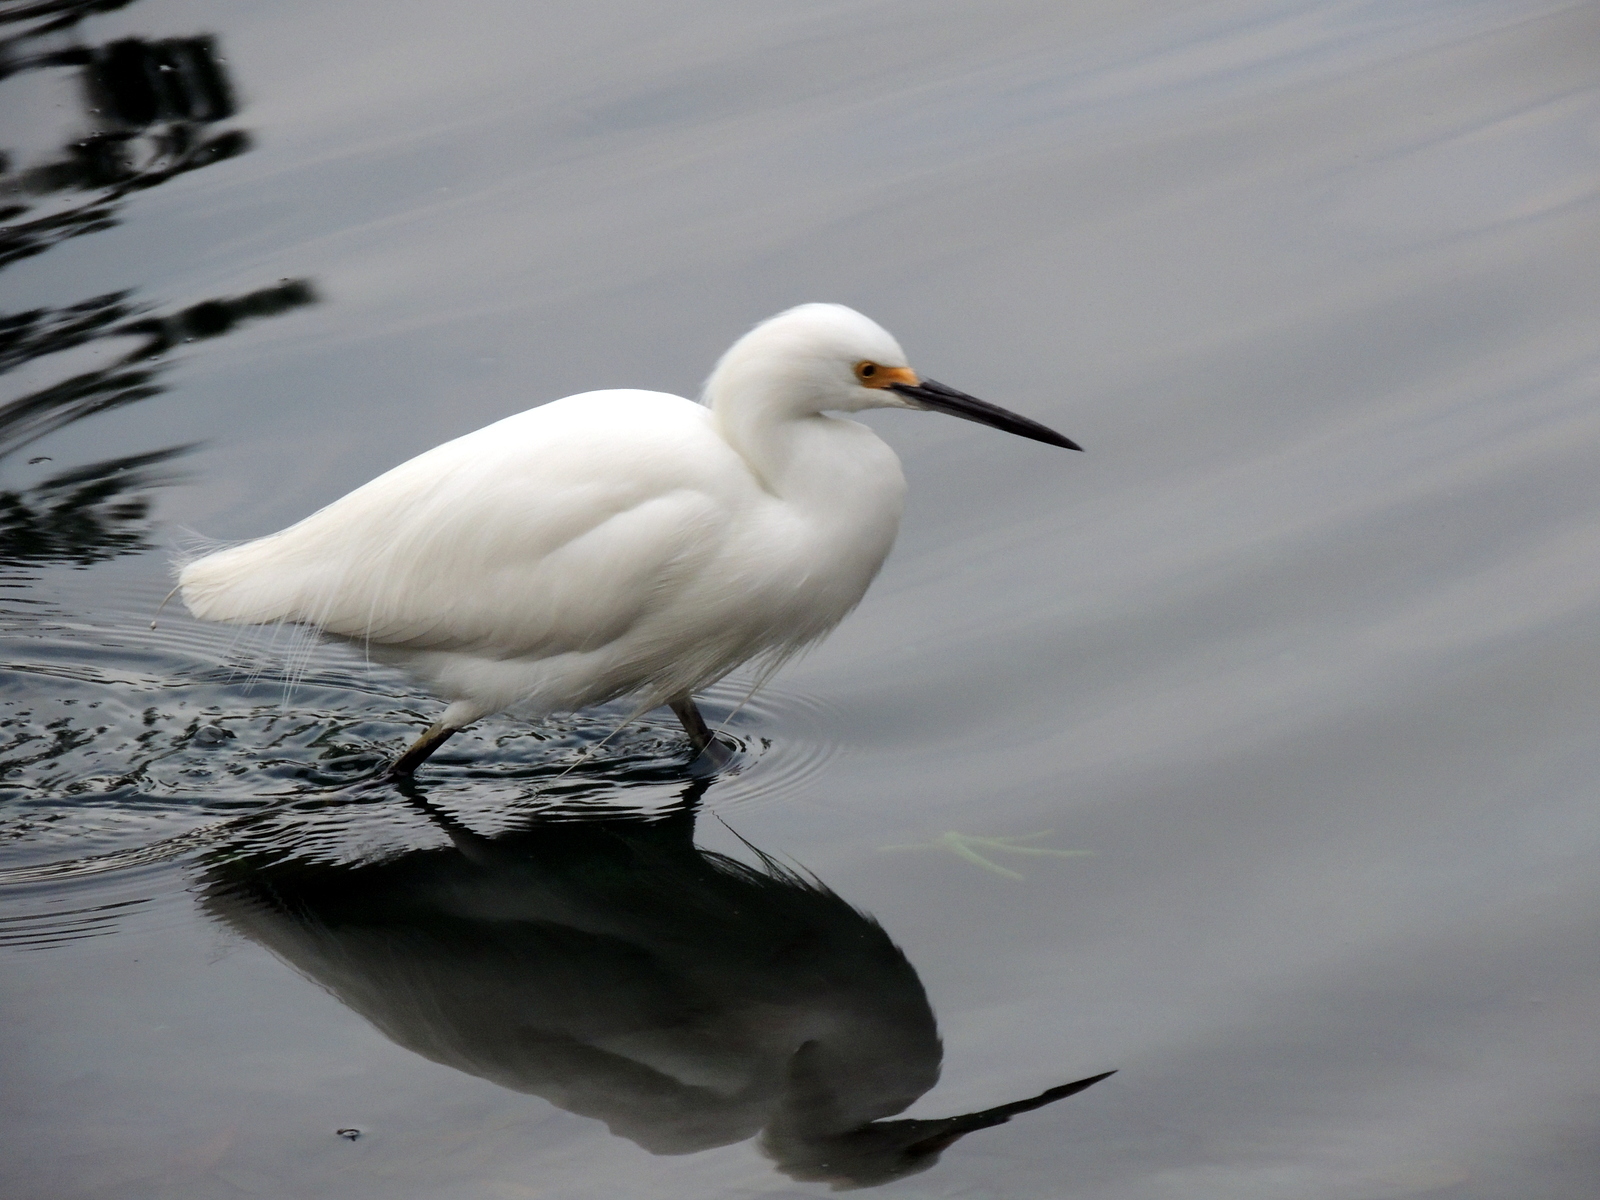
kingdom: Animalia
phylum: Chordata
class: Aves
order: Pelecaniformes
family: Ardeidae
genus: Egretta
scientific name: Egretta thula
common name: Snowy egret
